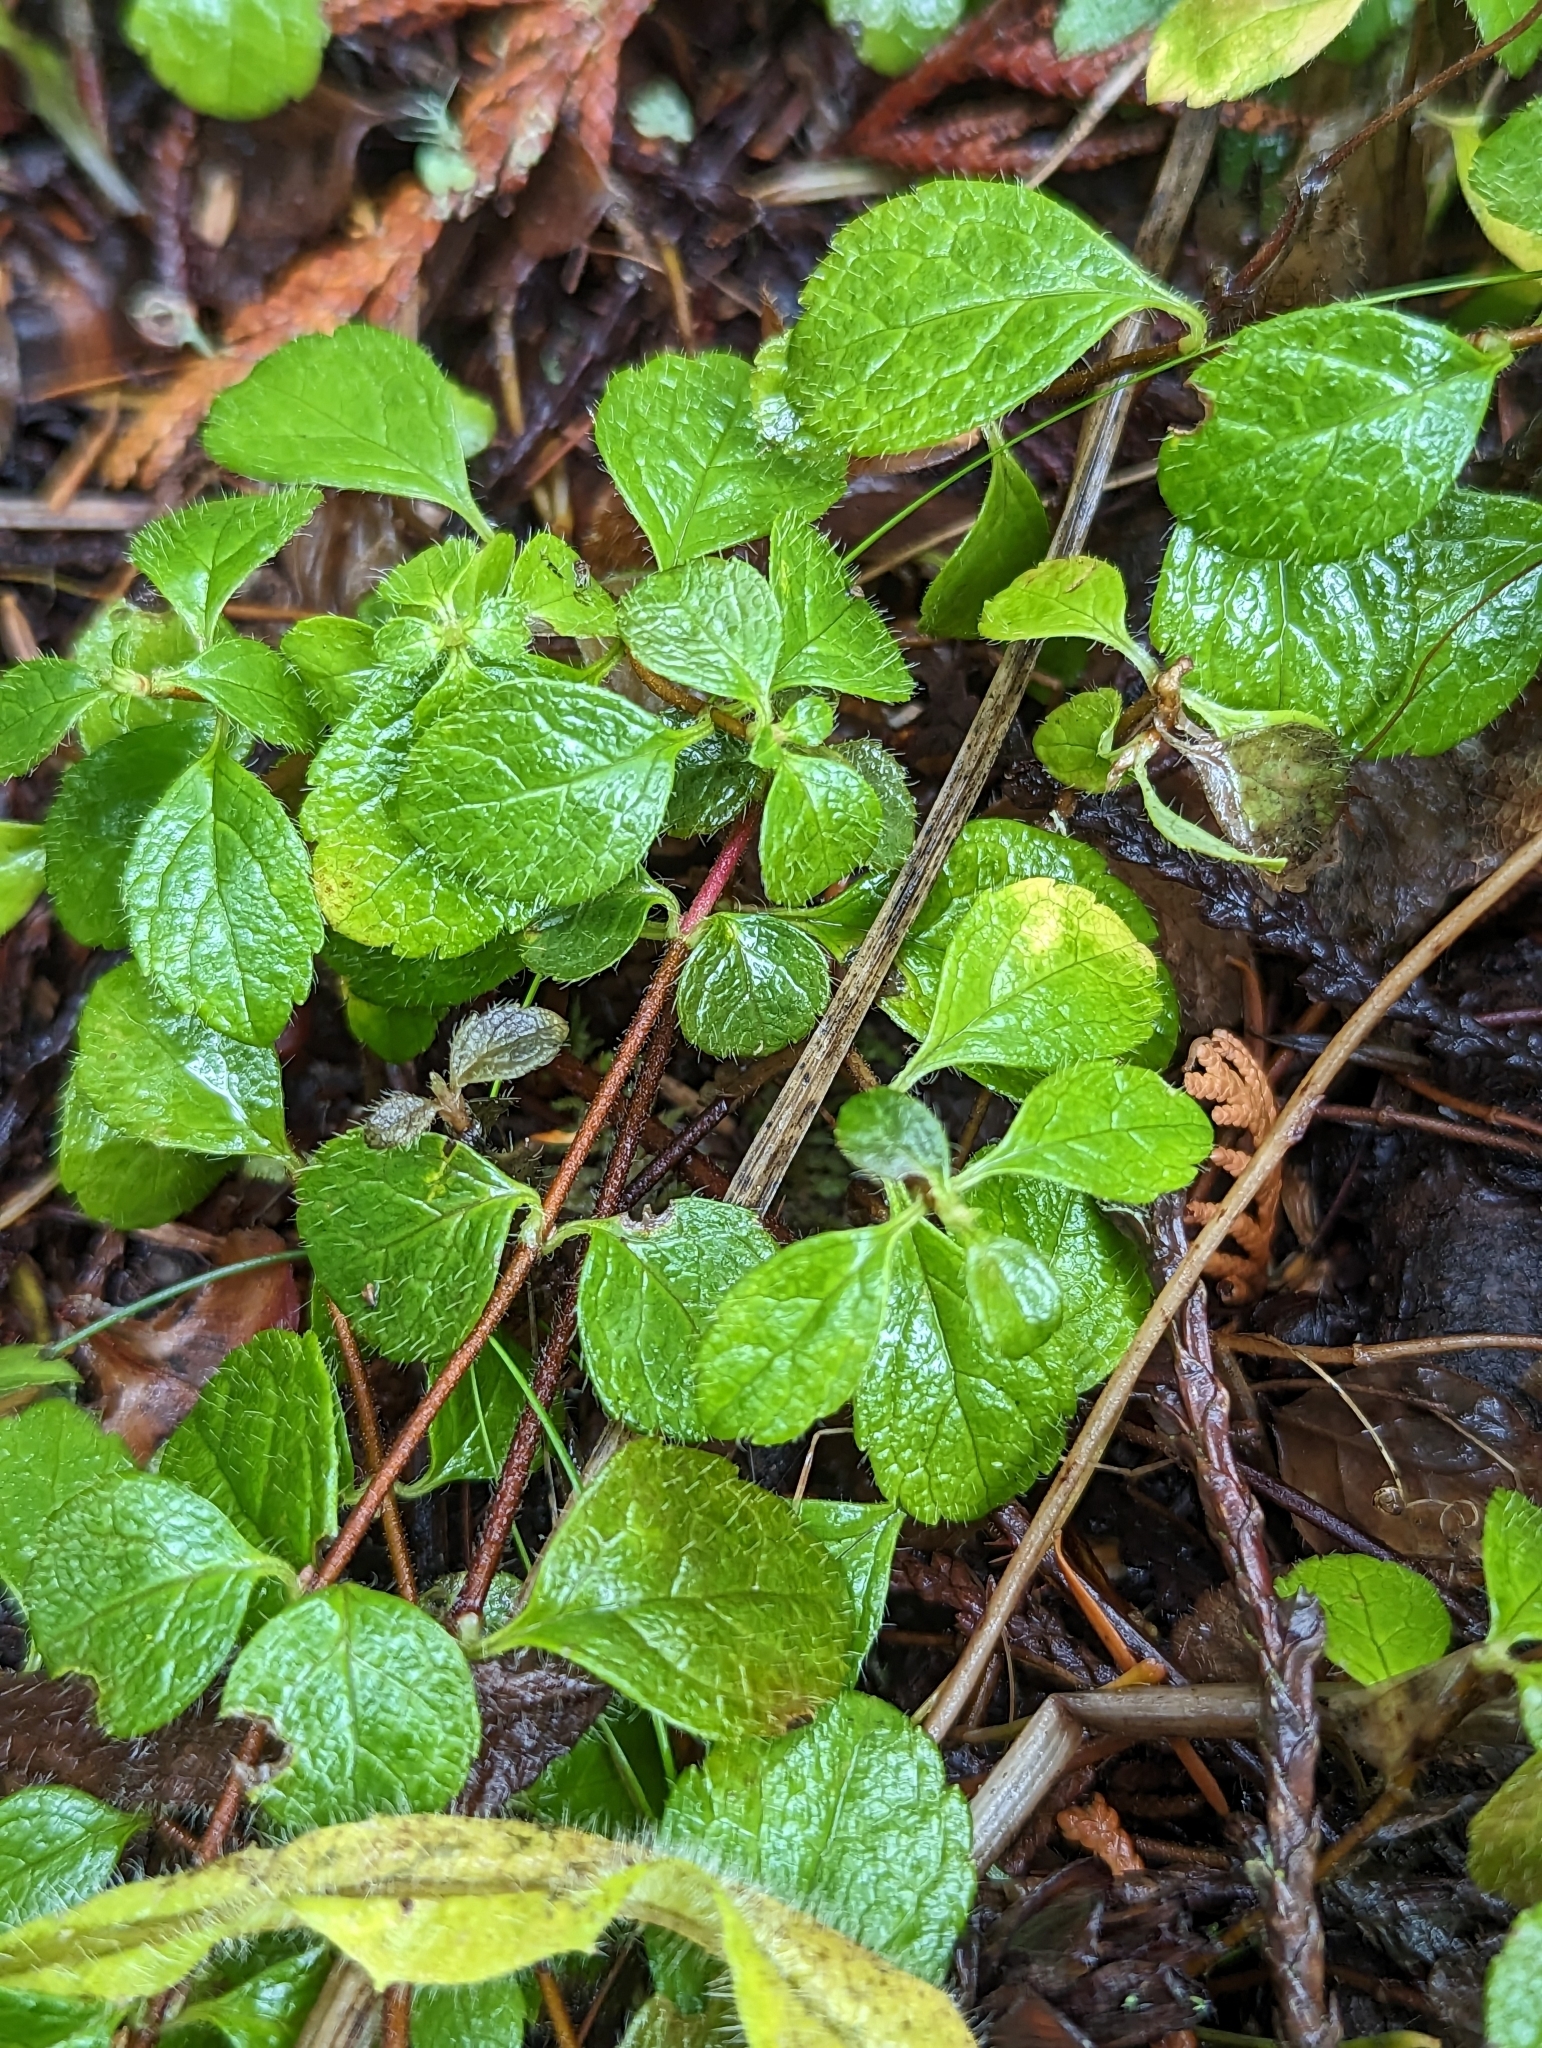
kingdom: Plantae
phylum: Tracheophyta
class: Magnoliopsida
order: Dipsacales
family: Caprifoliaceae
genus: Linnaea
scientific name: Linnaea borealis
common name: Twinflower
